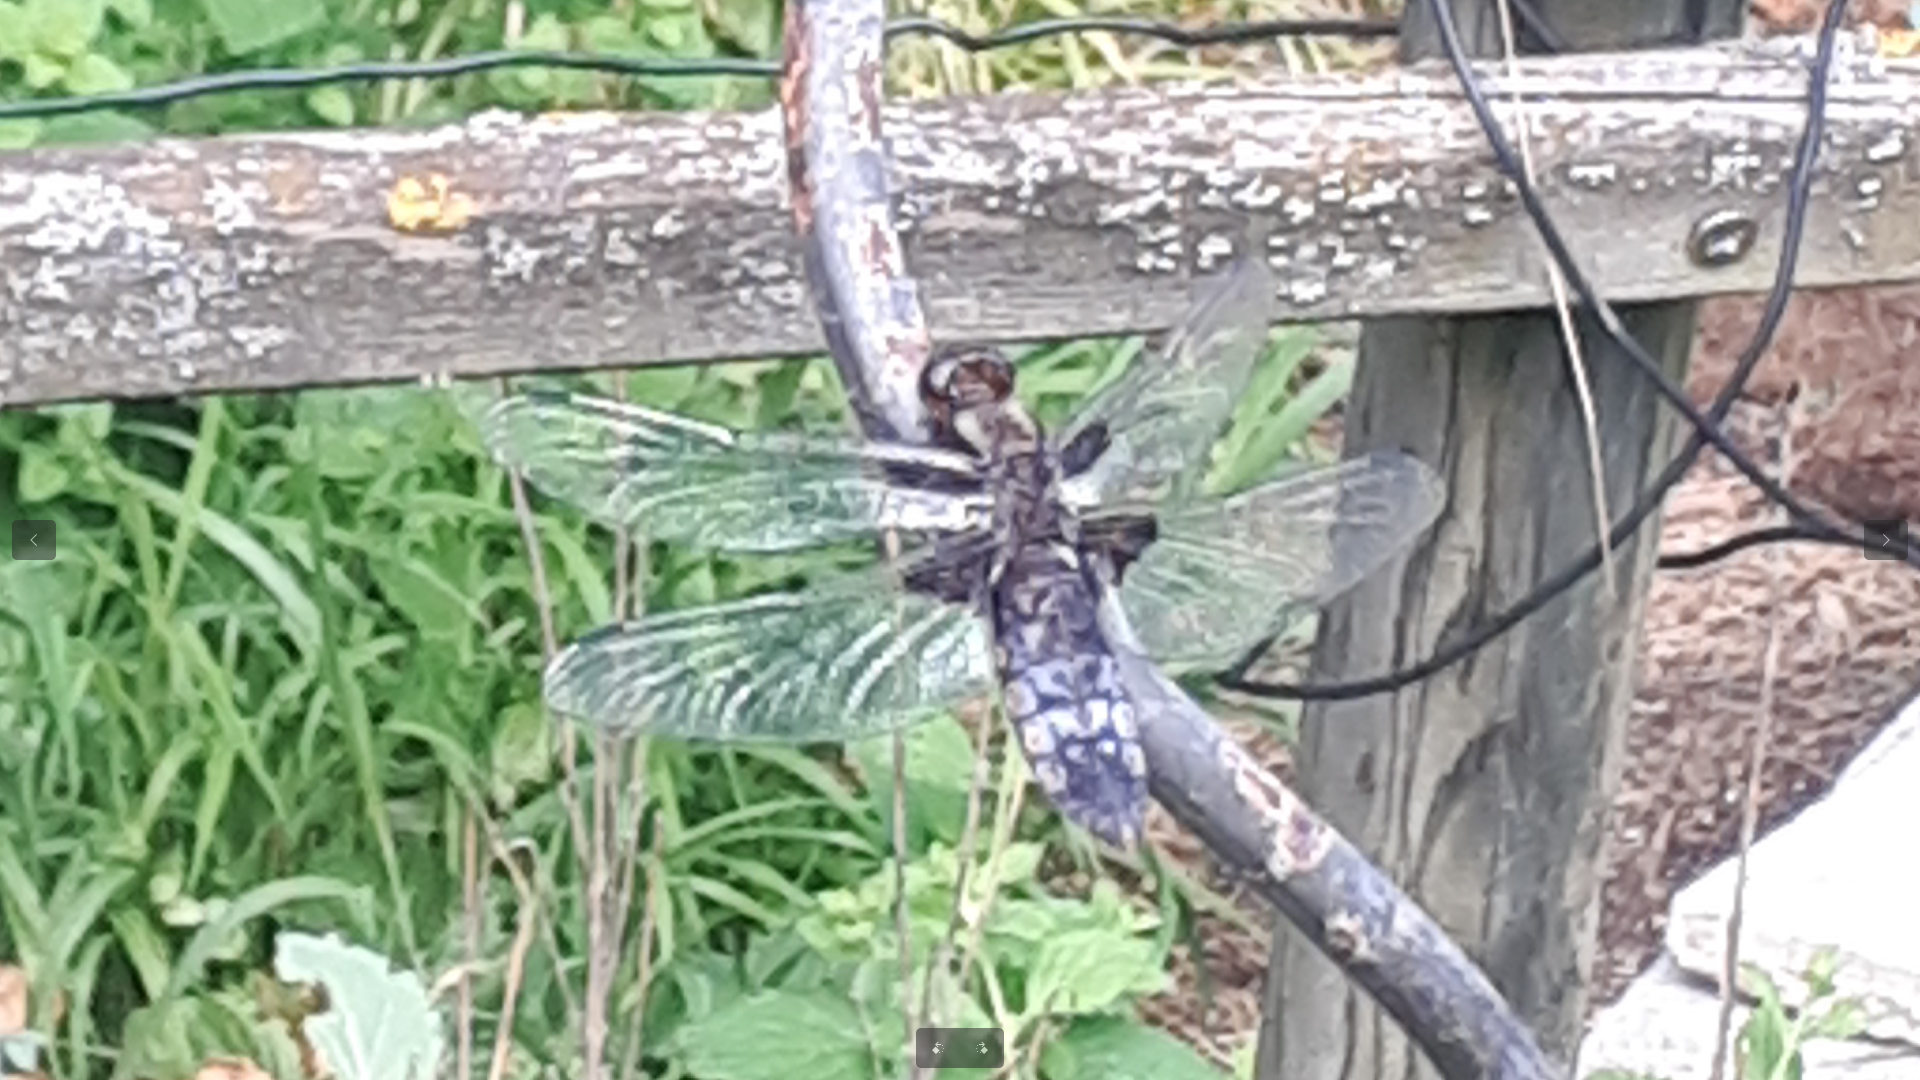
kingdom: Animalia
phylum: Arthropoda
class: Insecta
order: Odonata
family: Libellulidae
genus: Libellula
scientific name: Libellula depressa
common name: Broad-bodied chaser
